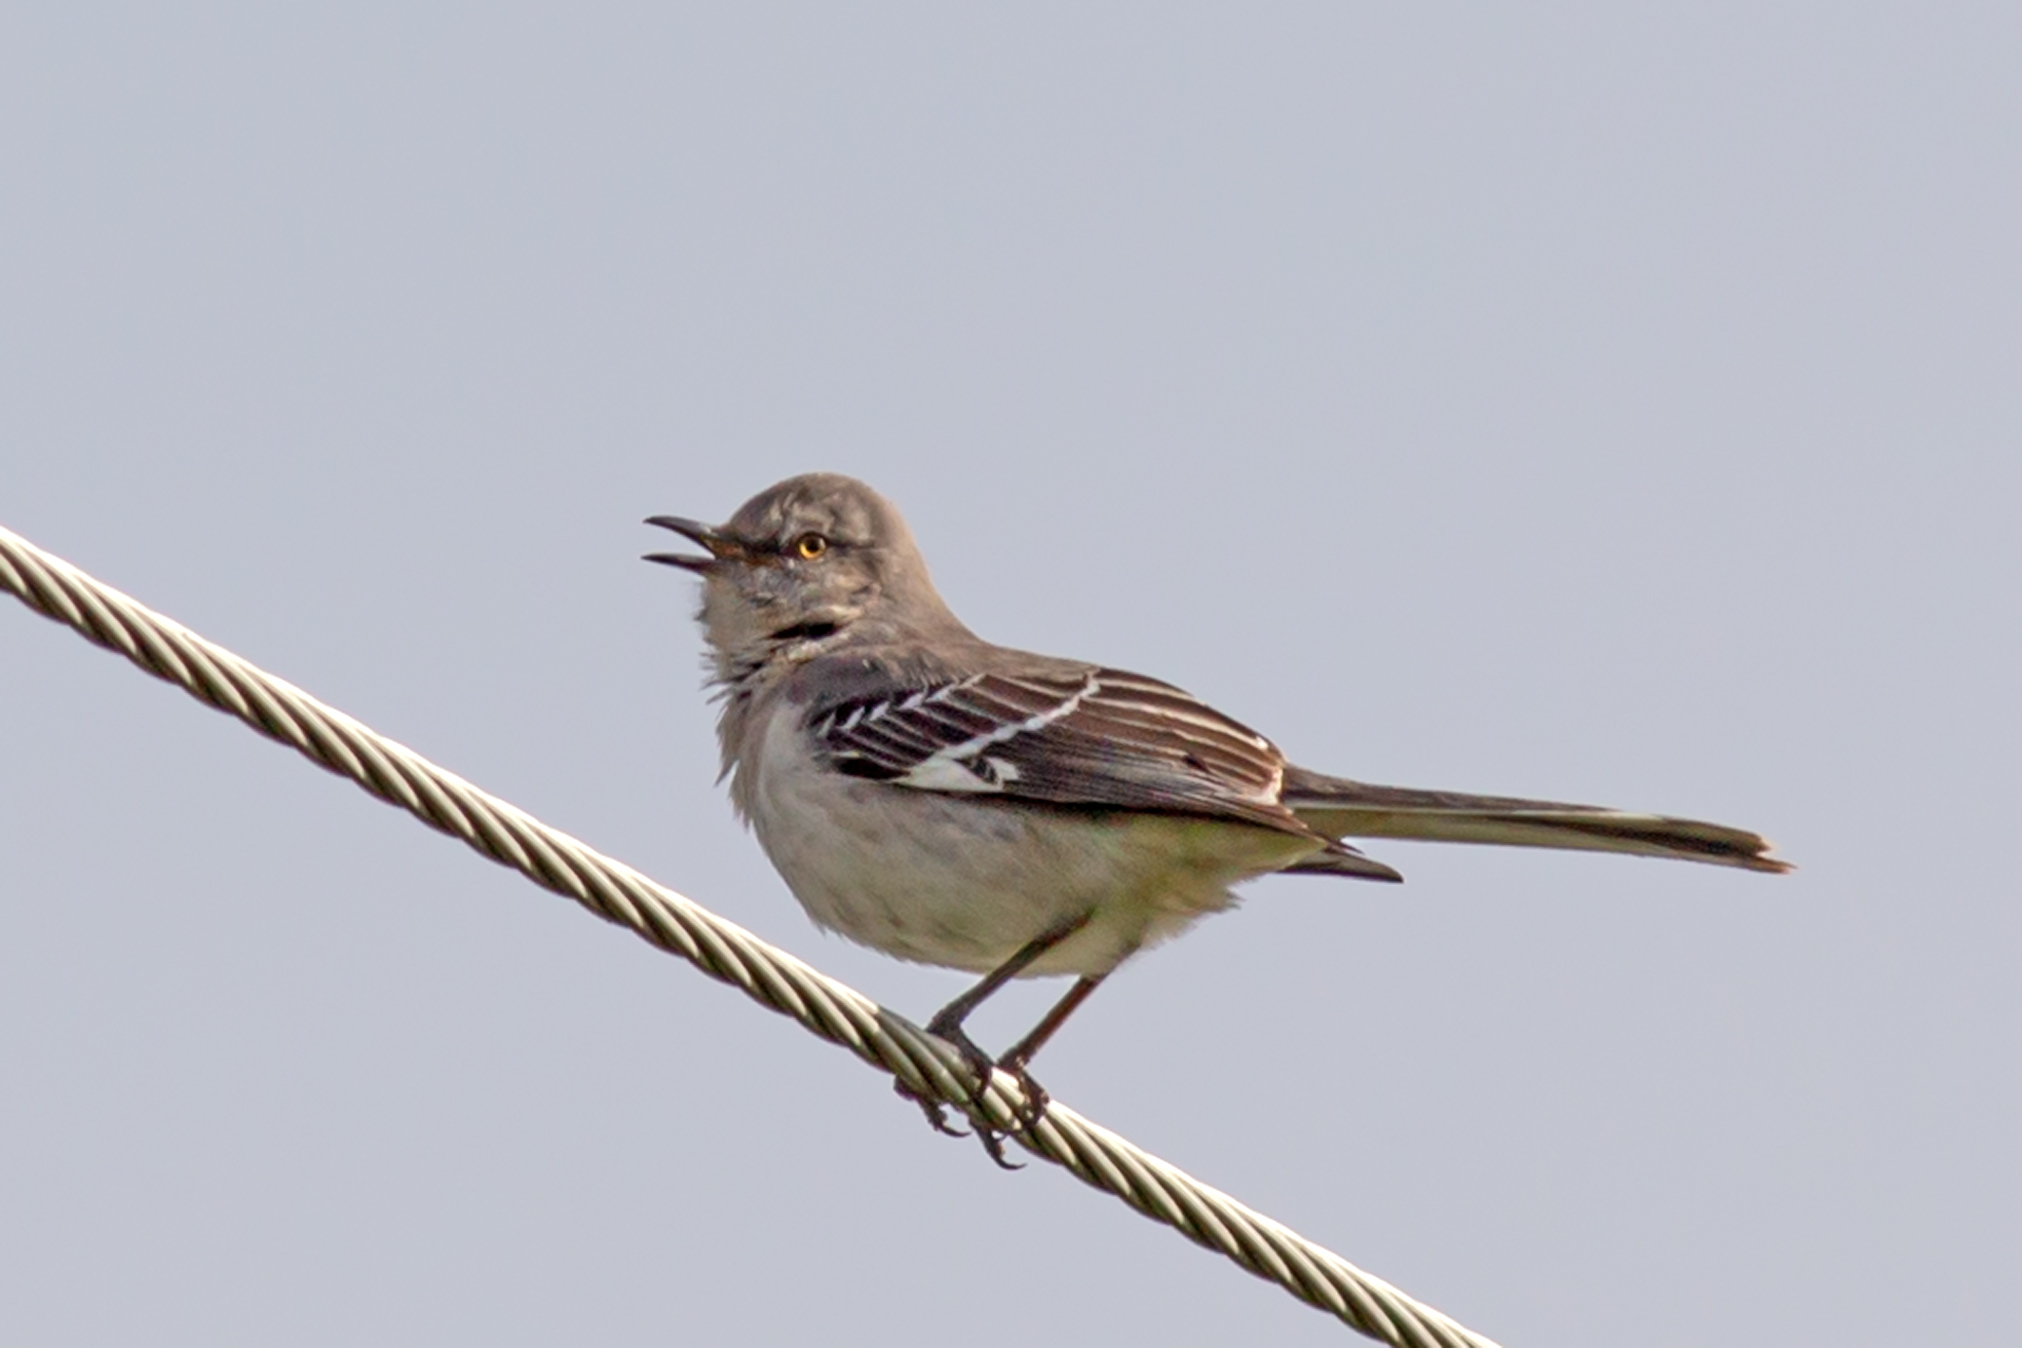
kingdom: Animalia
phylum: Chordata
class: Aves
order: Passeriformes
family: Mimidae
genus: Mimus
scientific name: Mimus polyglottos
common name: Northern mockingbird
